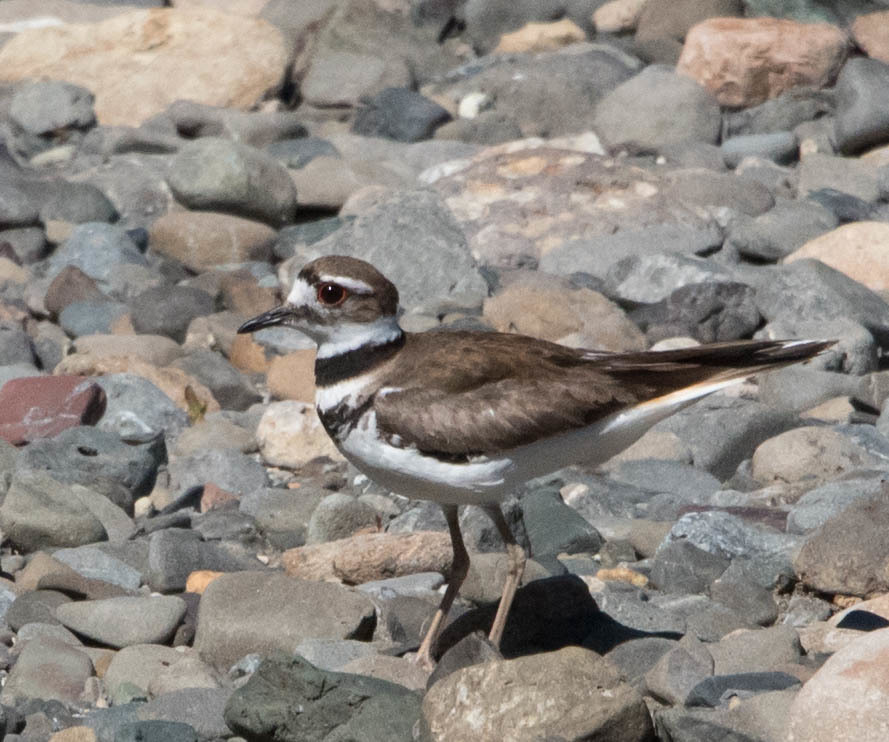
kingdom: Animalia
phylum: Chordata
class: Aves
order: Charadriiformes
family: Charadriidae
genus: Charadrius
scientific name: Charadrius vociferus
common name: Killdeer
